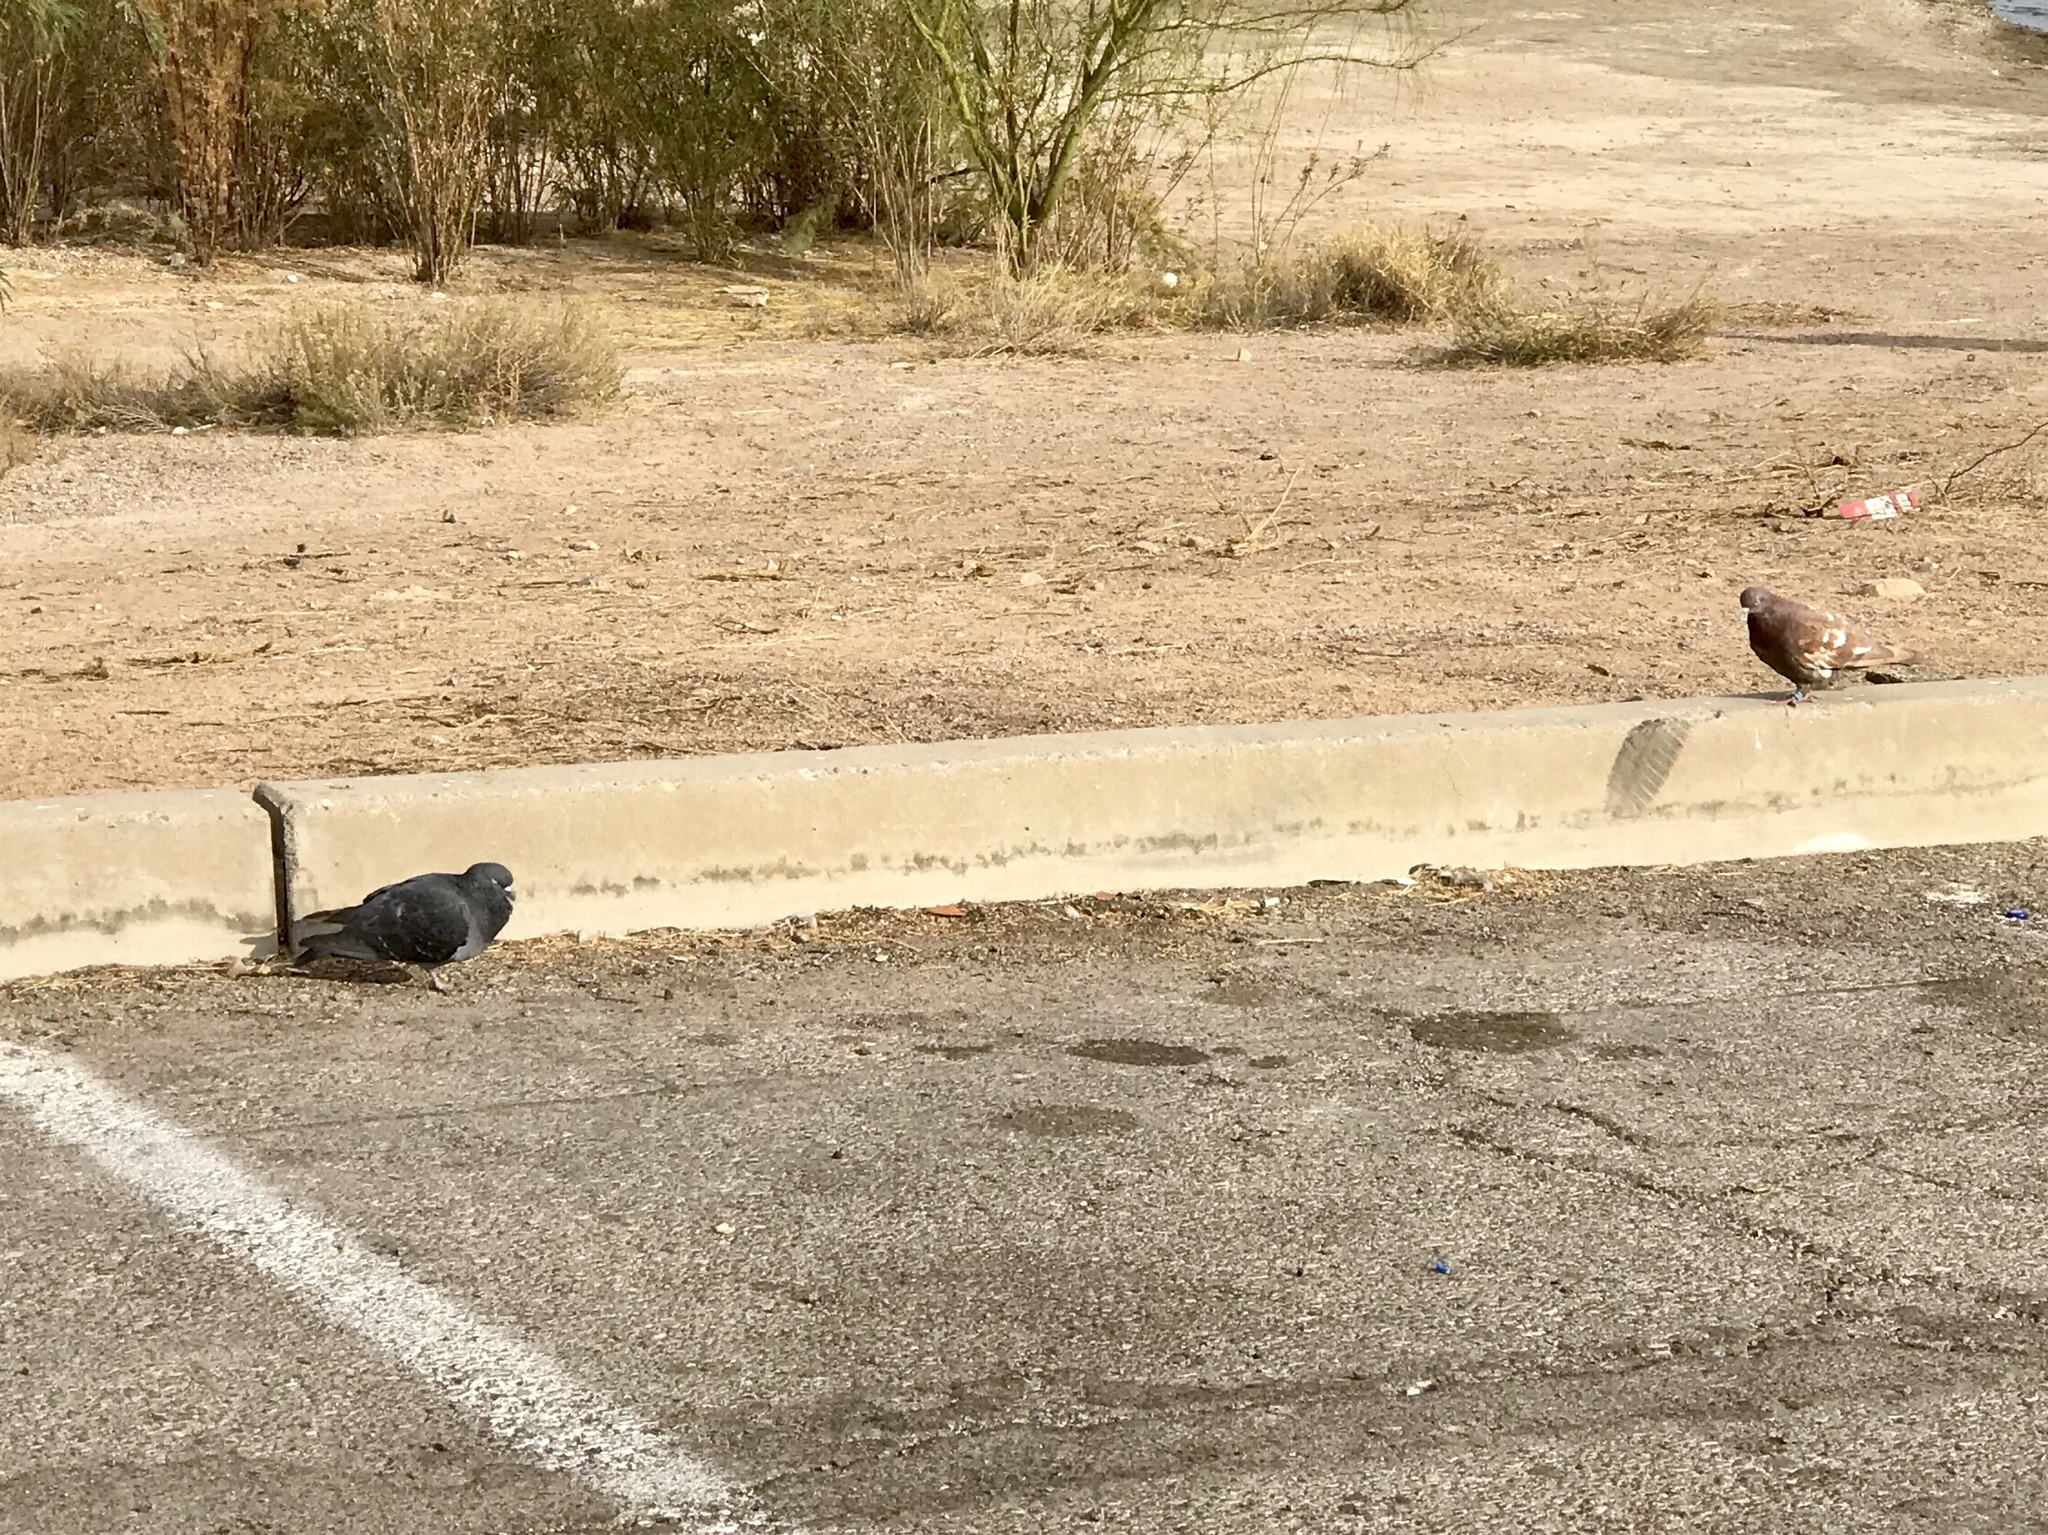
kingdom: Animalia
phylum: Chordata
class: Aves
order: Columbiformes
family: Columbidae
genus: Columba
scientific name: Columba livia
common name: Rock pigeon
